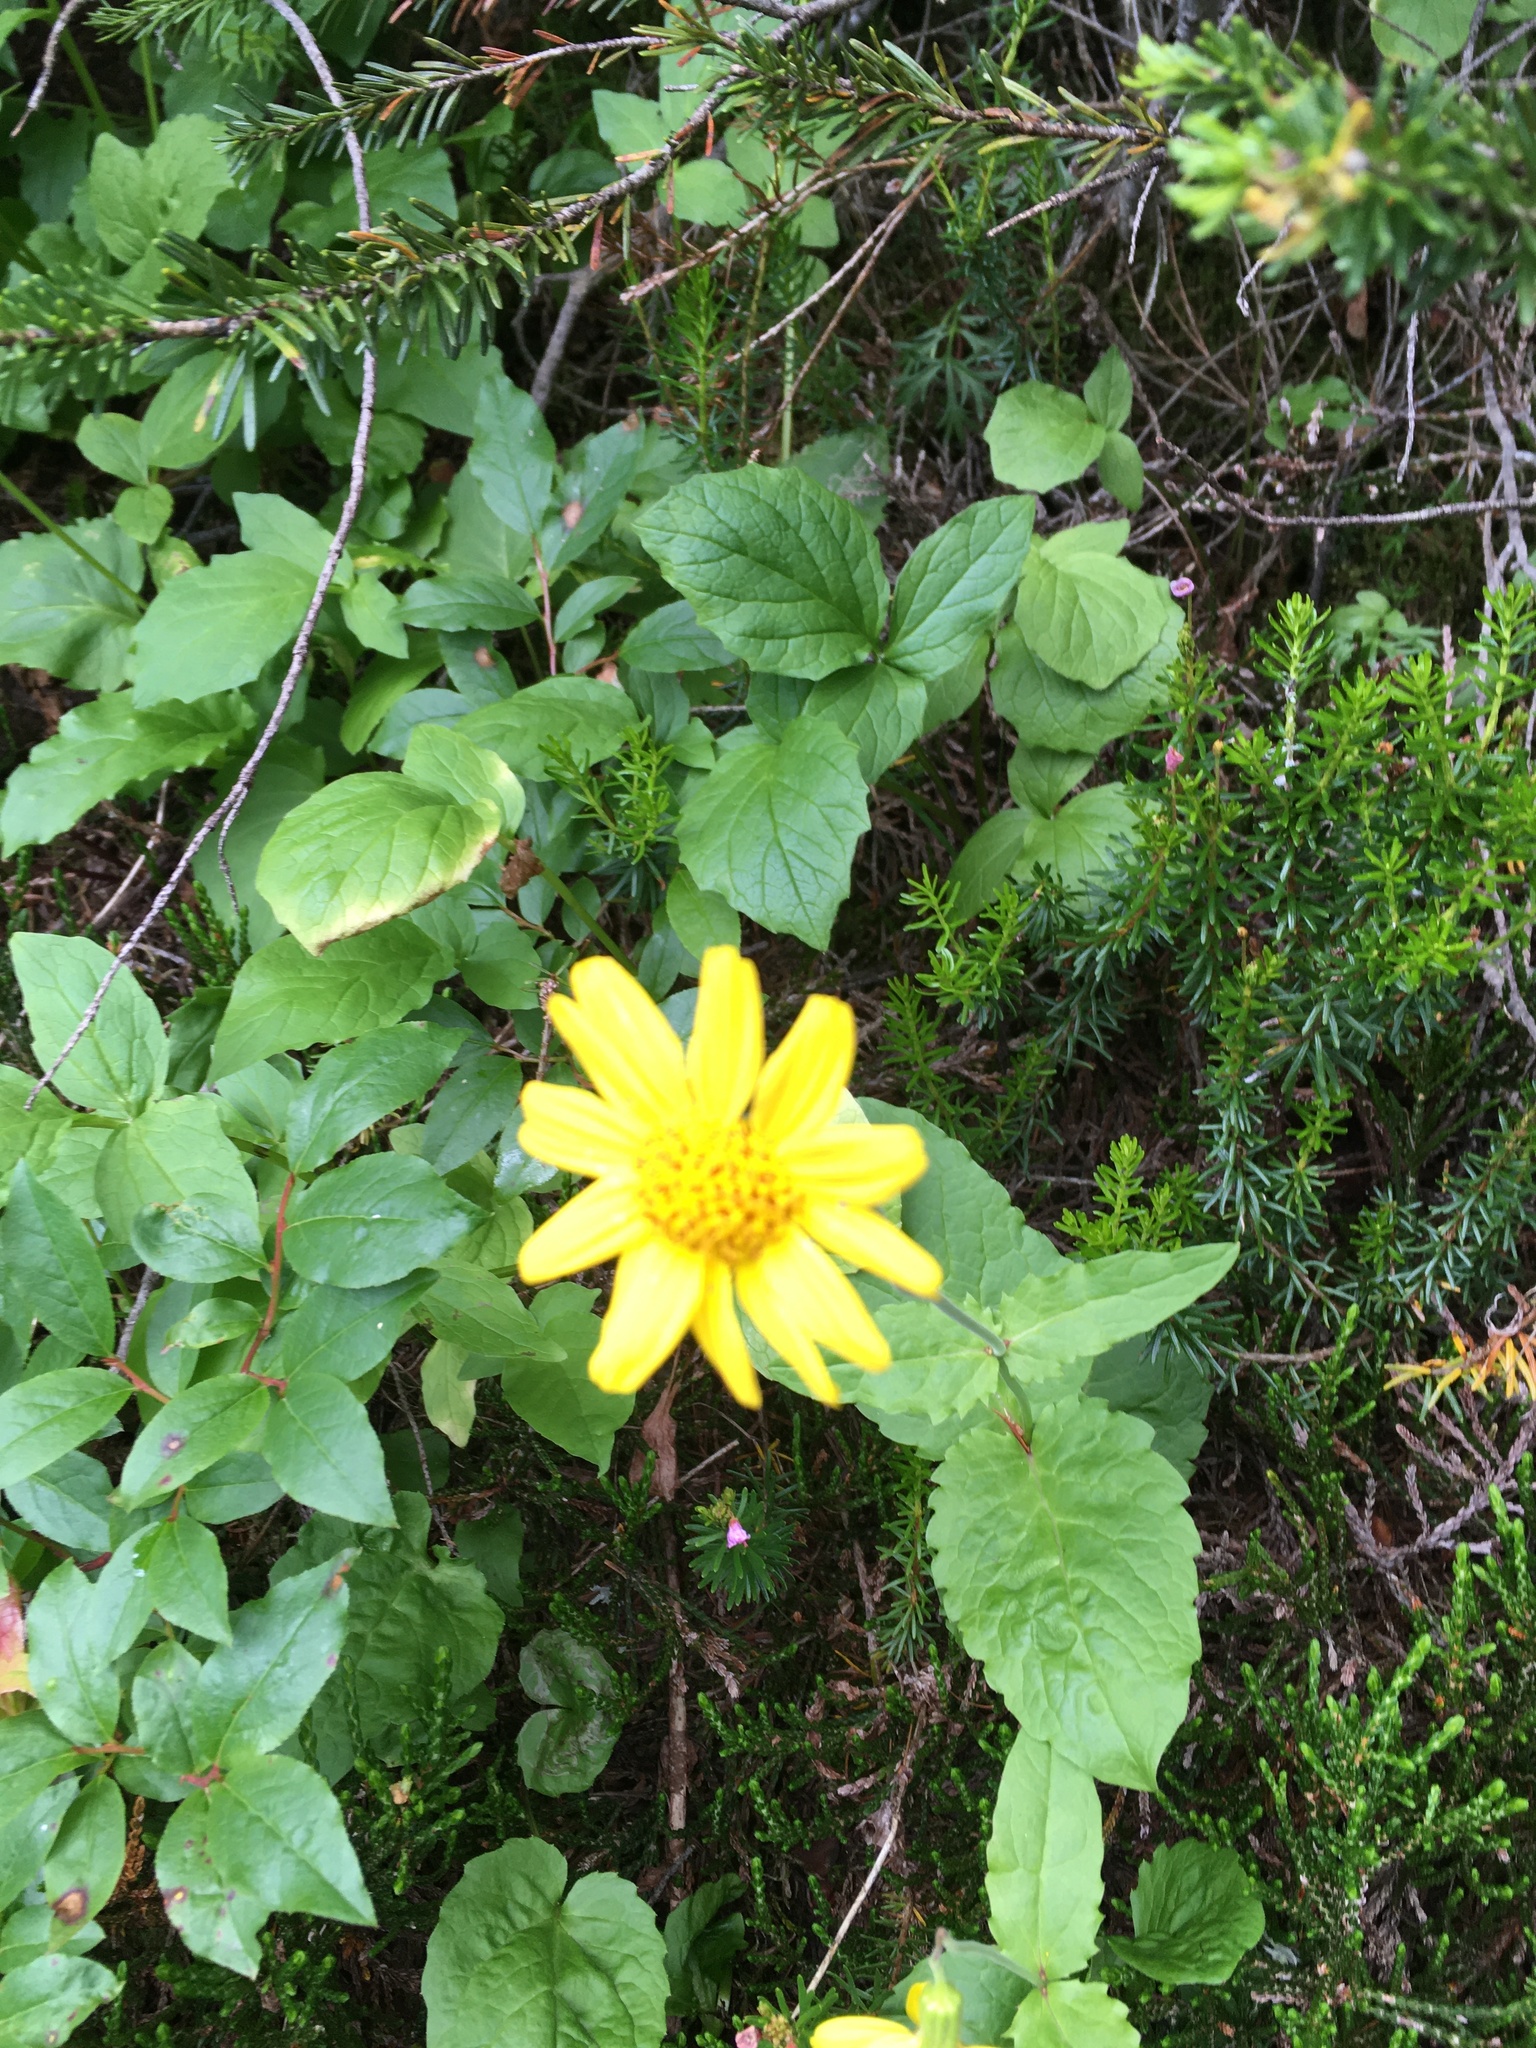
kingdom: Plantae
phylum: Tracheophyta
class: Magnoliopsida
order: Asterales
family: Asteraceae
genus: Arnica
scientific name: Arnica cordifolia
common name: Heart-leaf arnica
